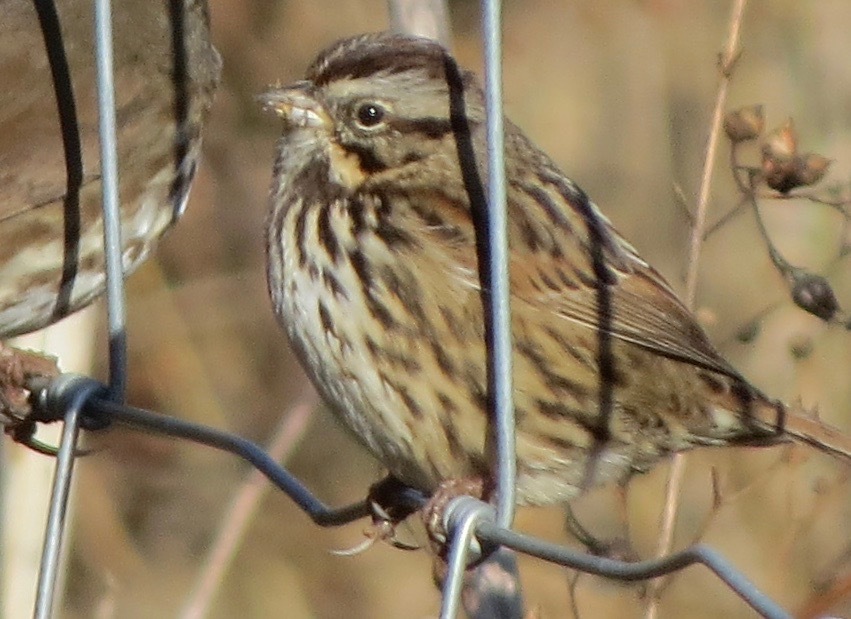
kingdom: Animalia
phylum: Chordata
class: Aves
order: Passeriformes
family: Passerellidae
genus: Melospiza
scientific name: Melospiza melodia
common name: Song sparrow
